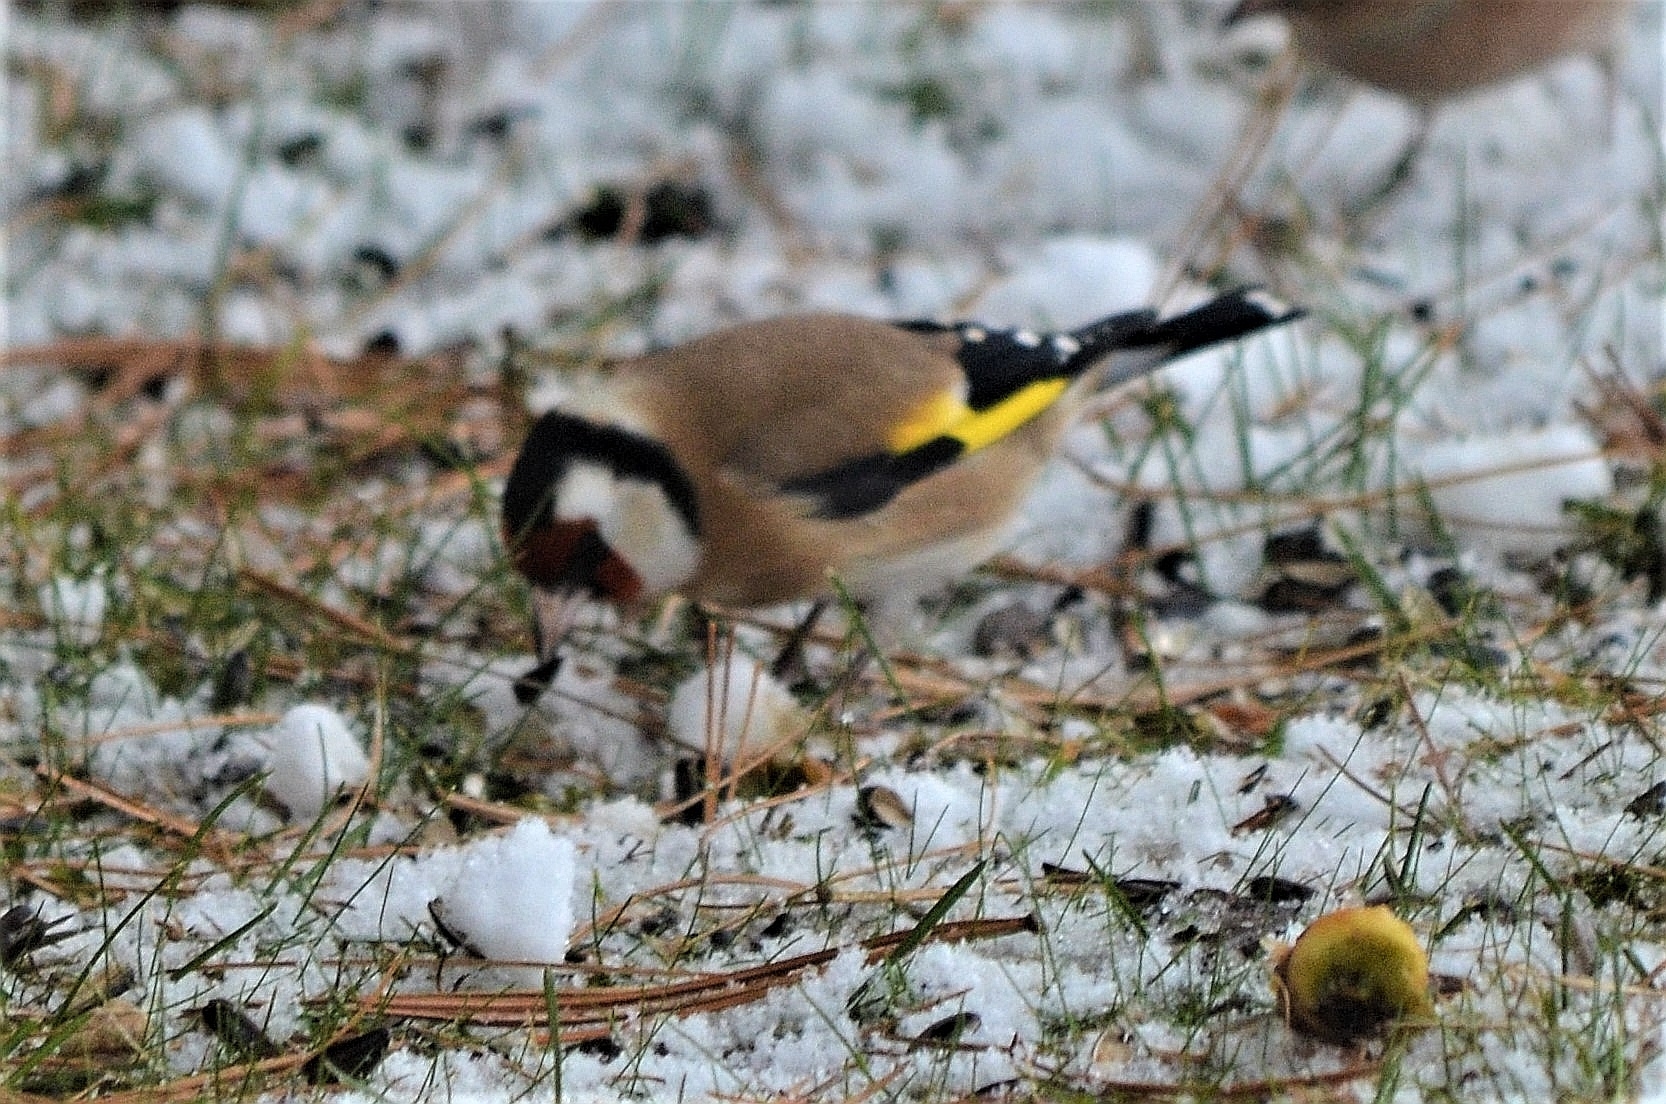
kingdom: Animalia
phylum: Chordata
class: Aves
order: Passeriformes
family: Fringillidae
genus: Carduelis
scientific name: Carduelis carduelis
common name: European goldfinch
